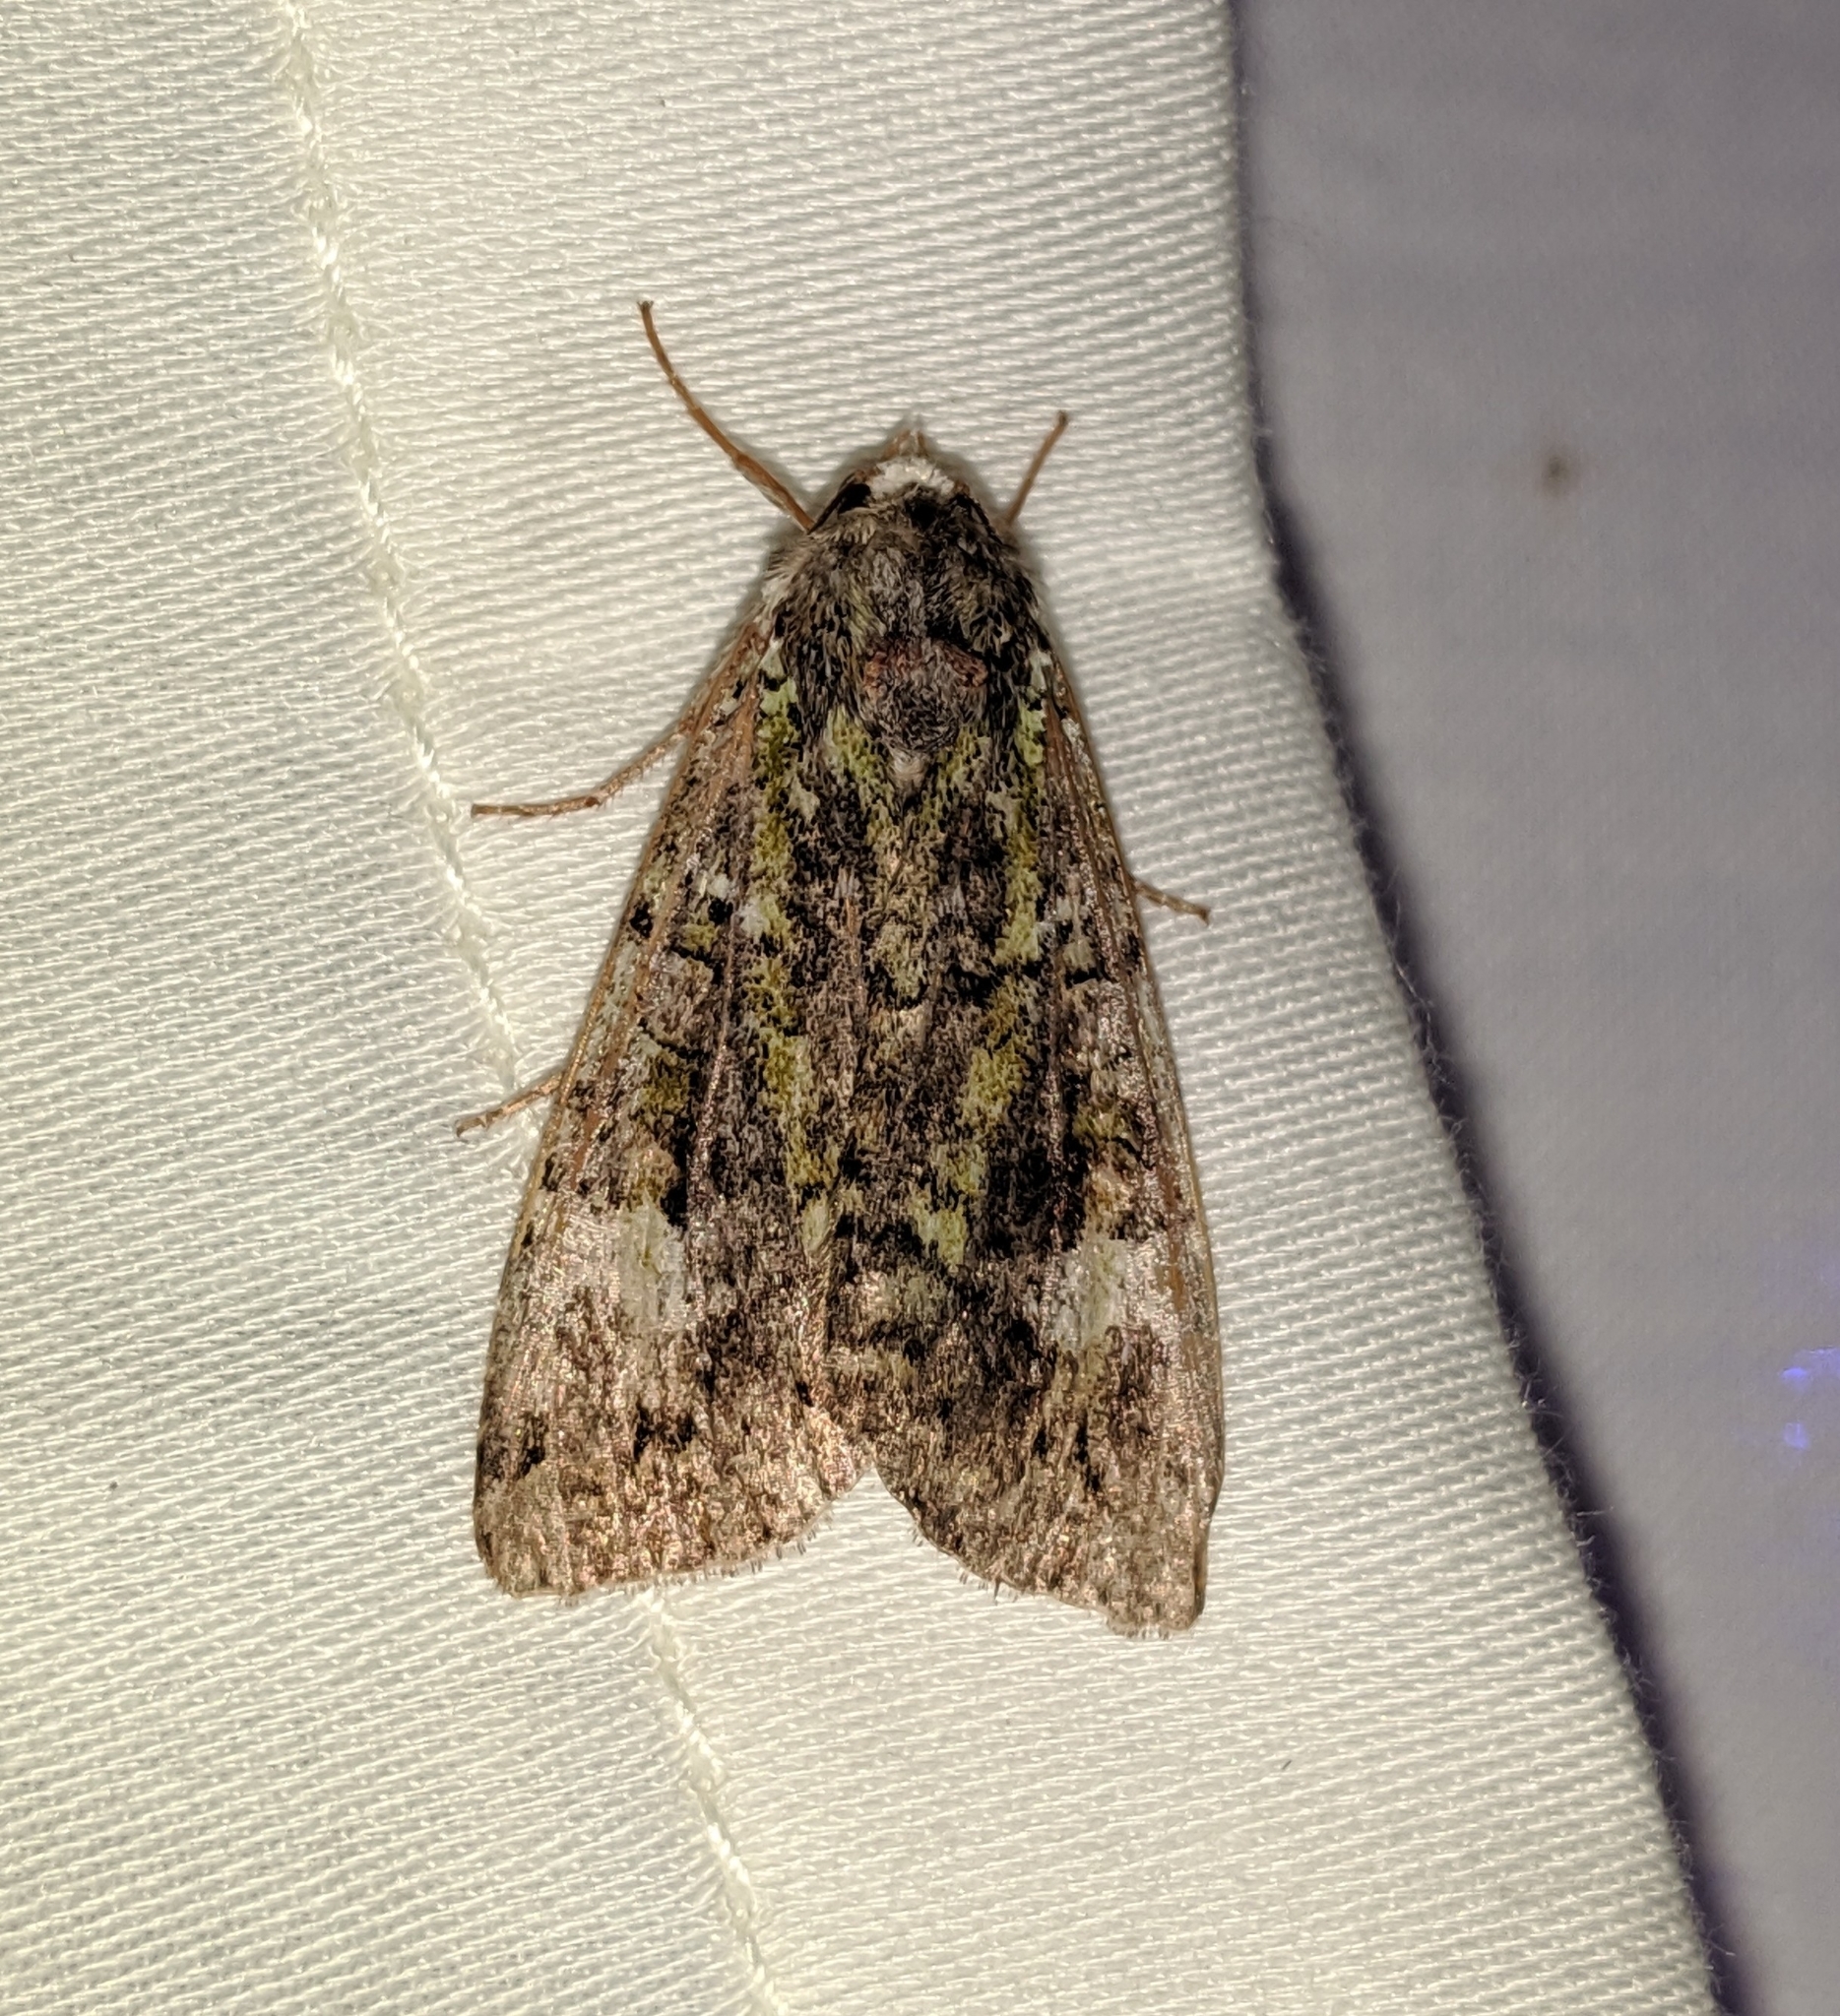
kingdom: Animalia
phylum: Arthropoda
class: Insecta
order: Lepidoptera
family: Noctuidae
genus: Anaplectoides
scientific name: Anaplectoides prasina
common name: Green arches
